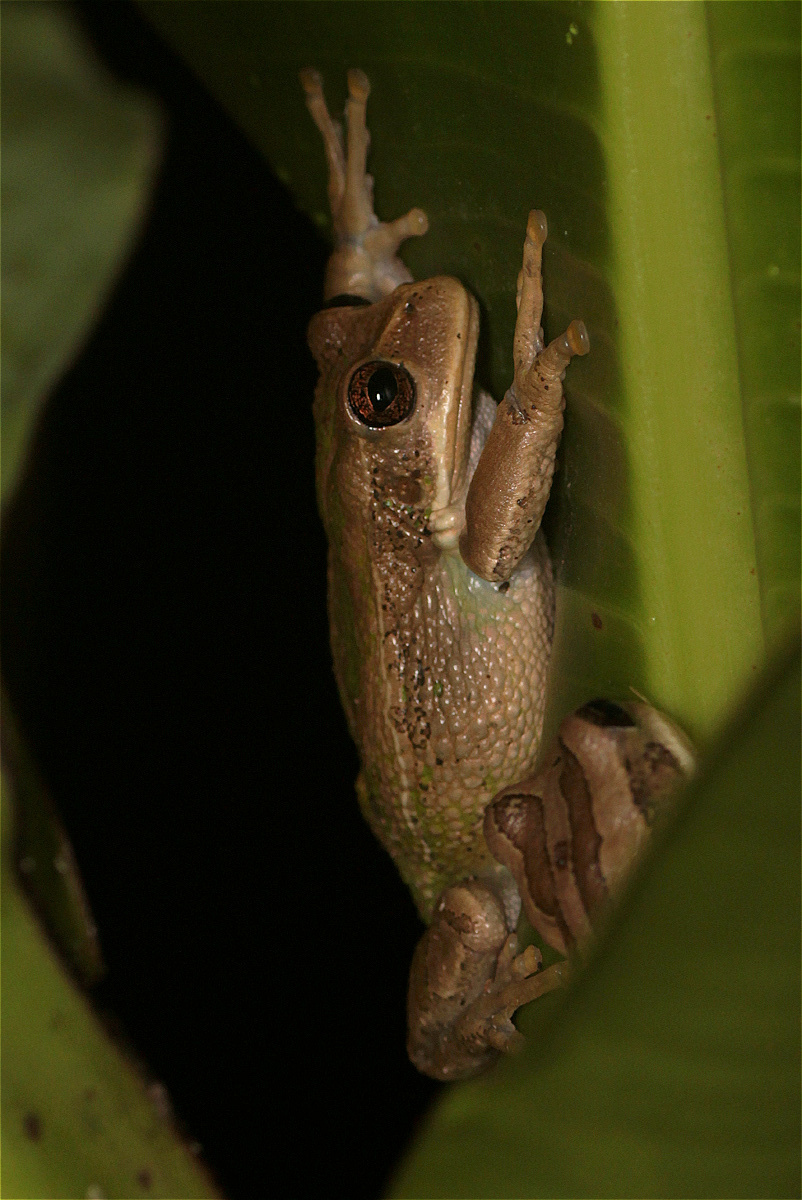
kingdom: Animalia
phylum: Chordata
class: Amphibia
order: Anura
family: Hemiphractidae
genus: Gastrotheca
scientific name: Gastrotheca cuencana
